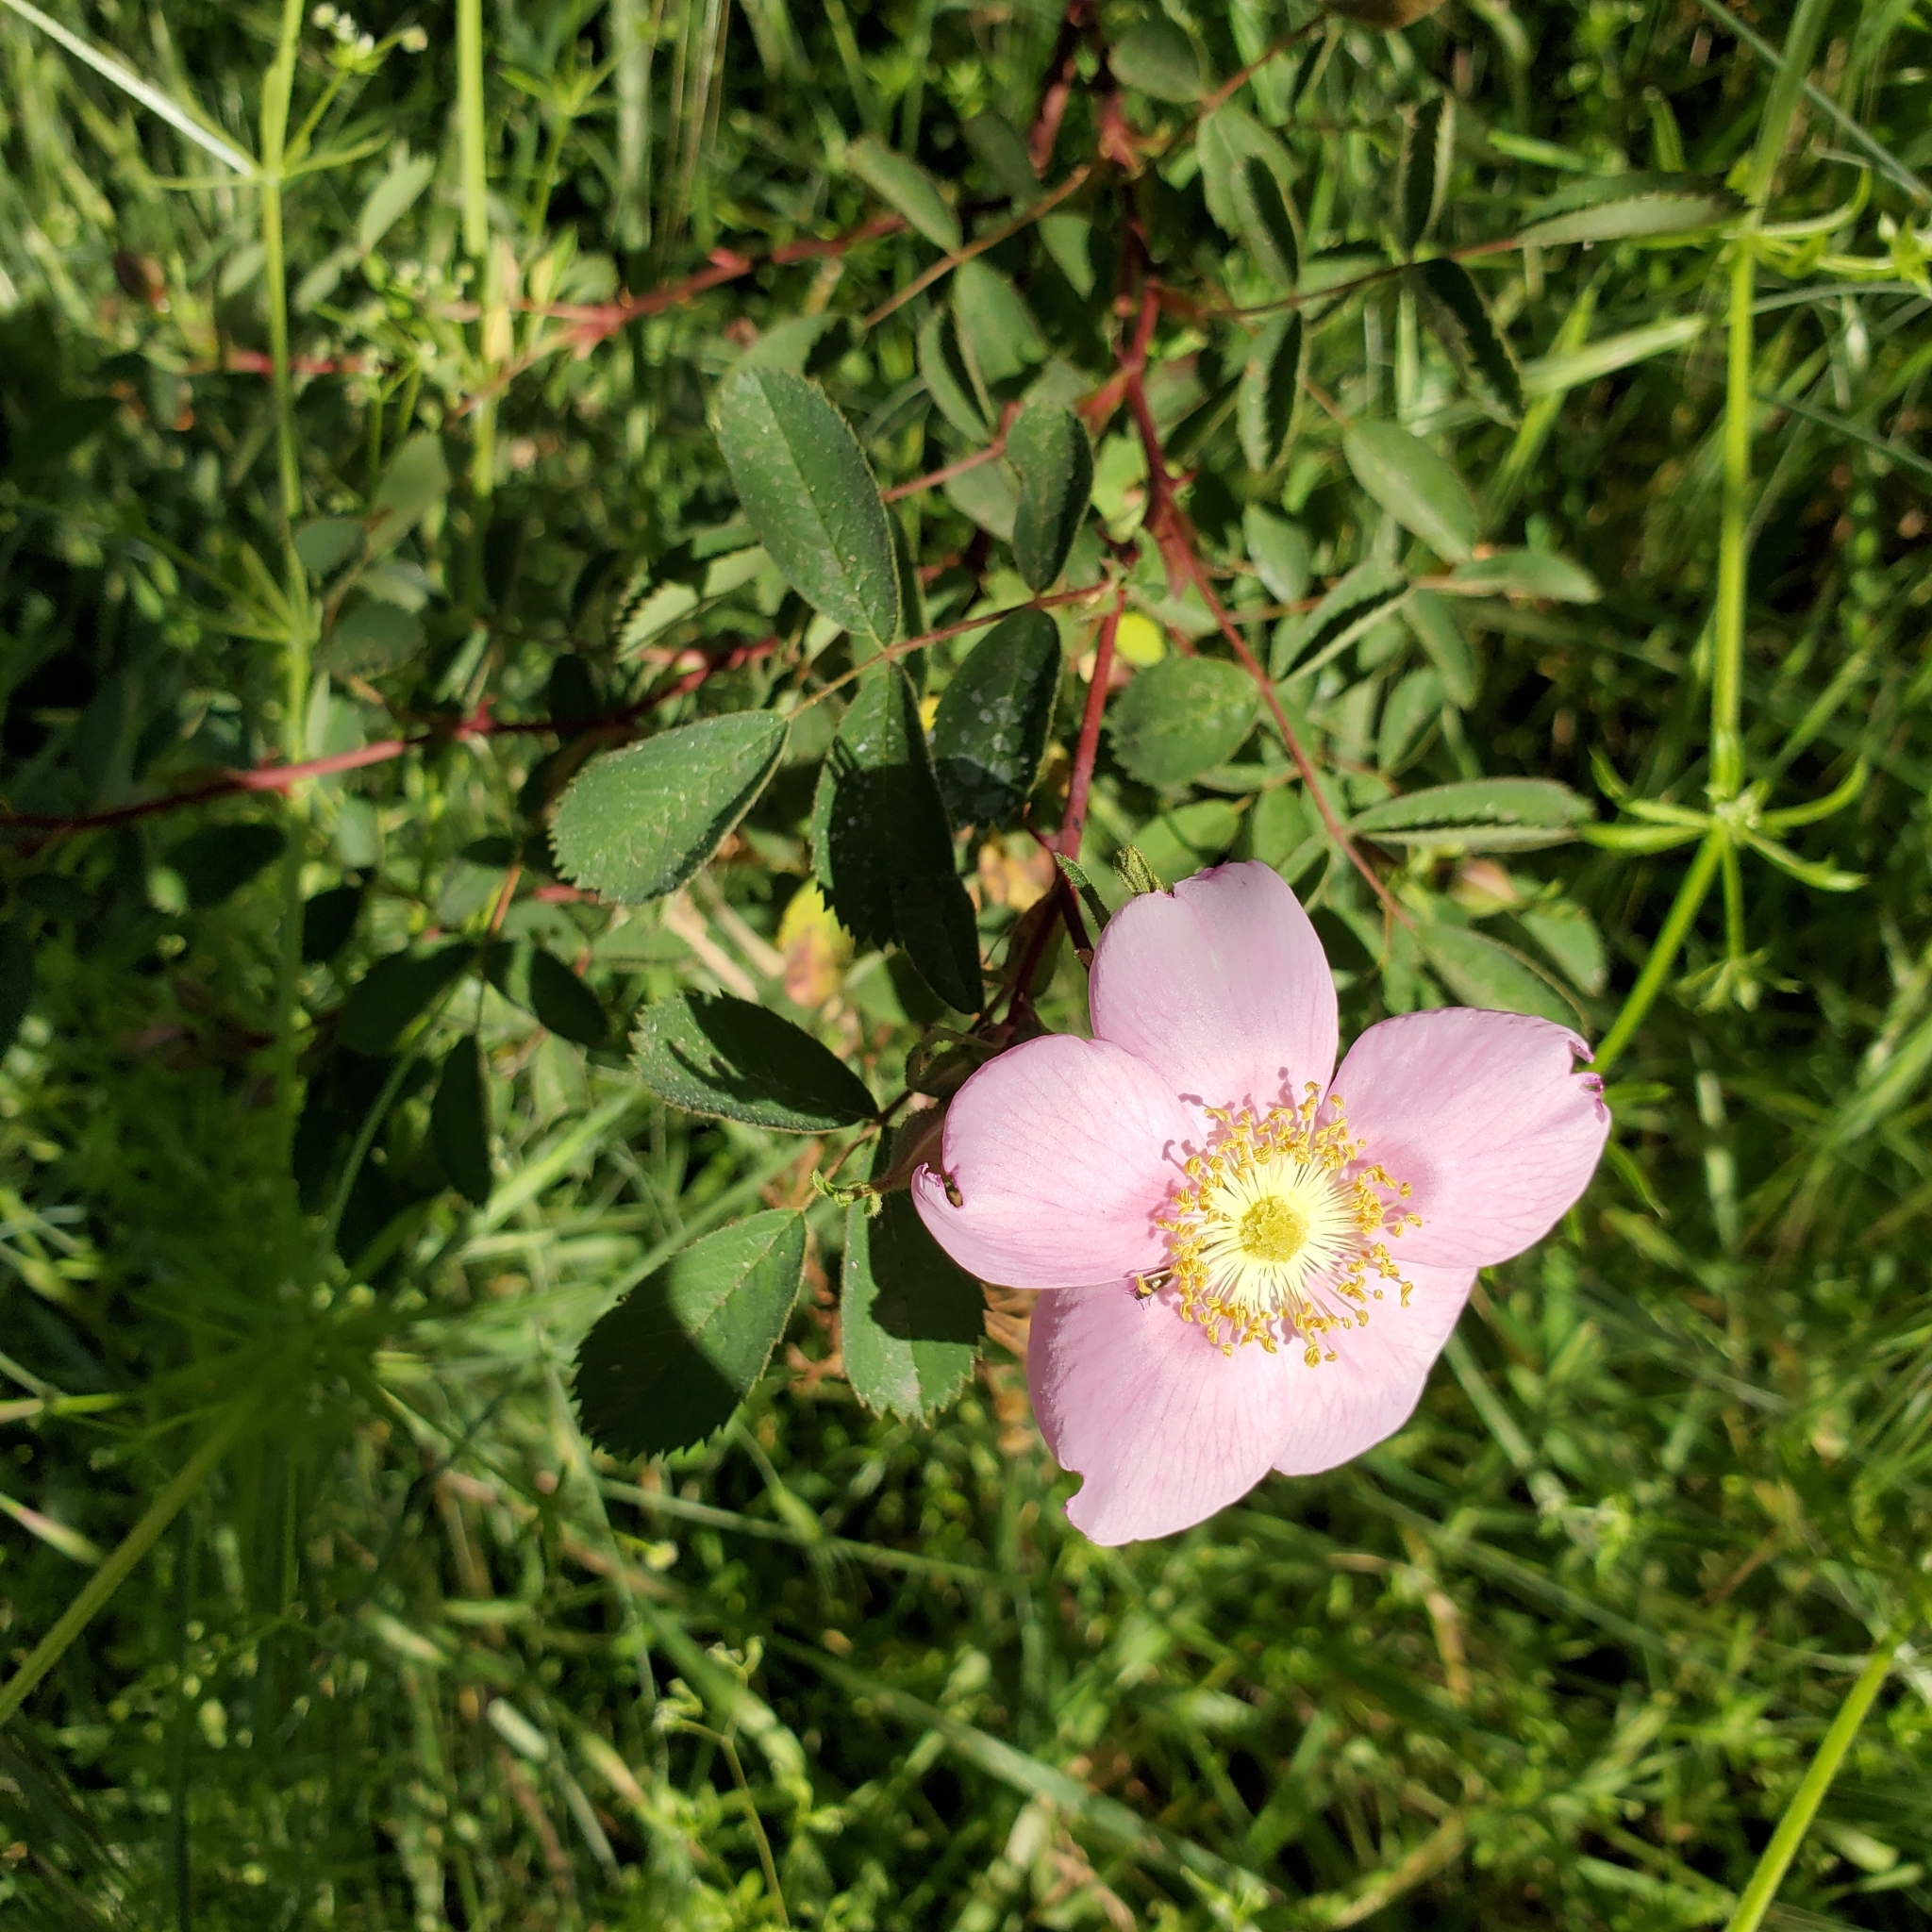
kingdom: Plantae
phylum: Tracheophyta
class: Magnoliopsida
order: Rosales
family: Rosaceae
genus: Rosa
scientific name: Rosa californica
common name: California rose
